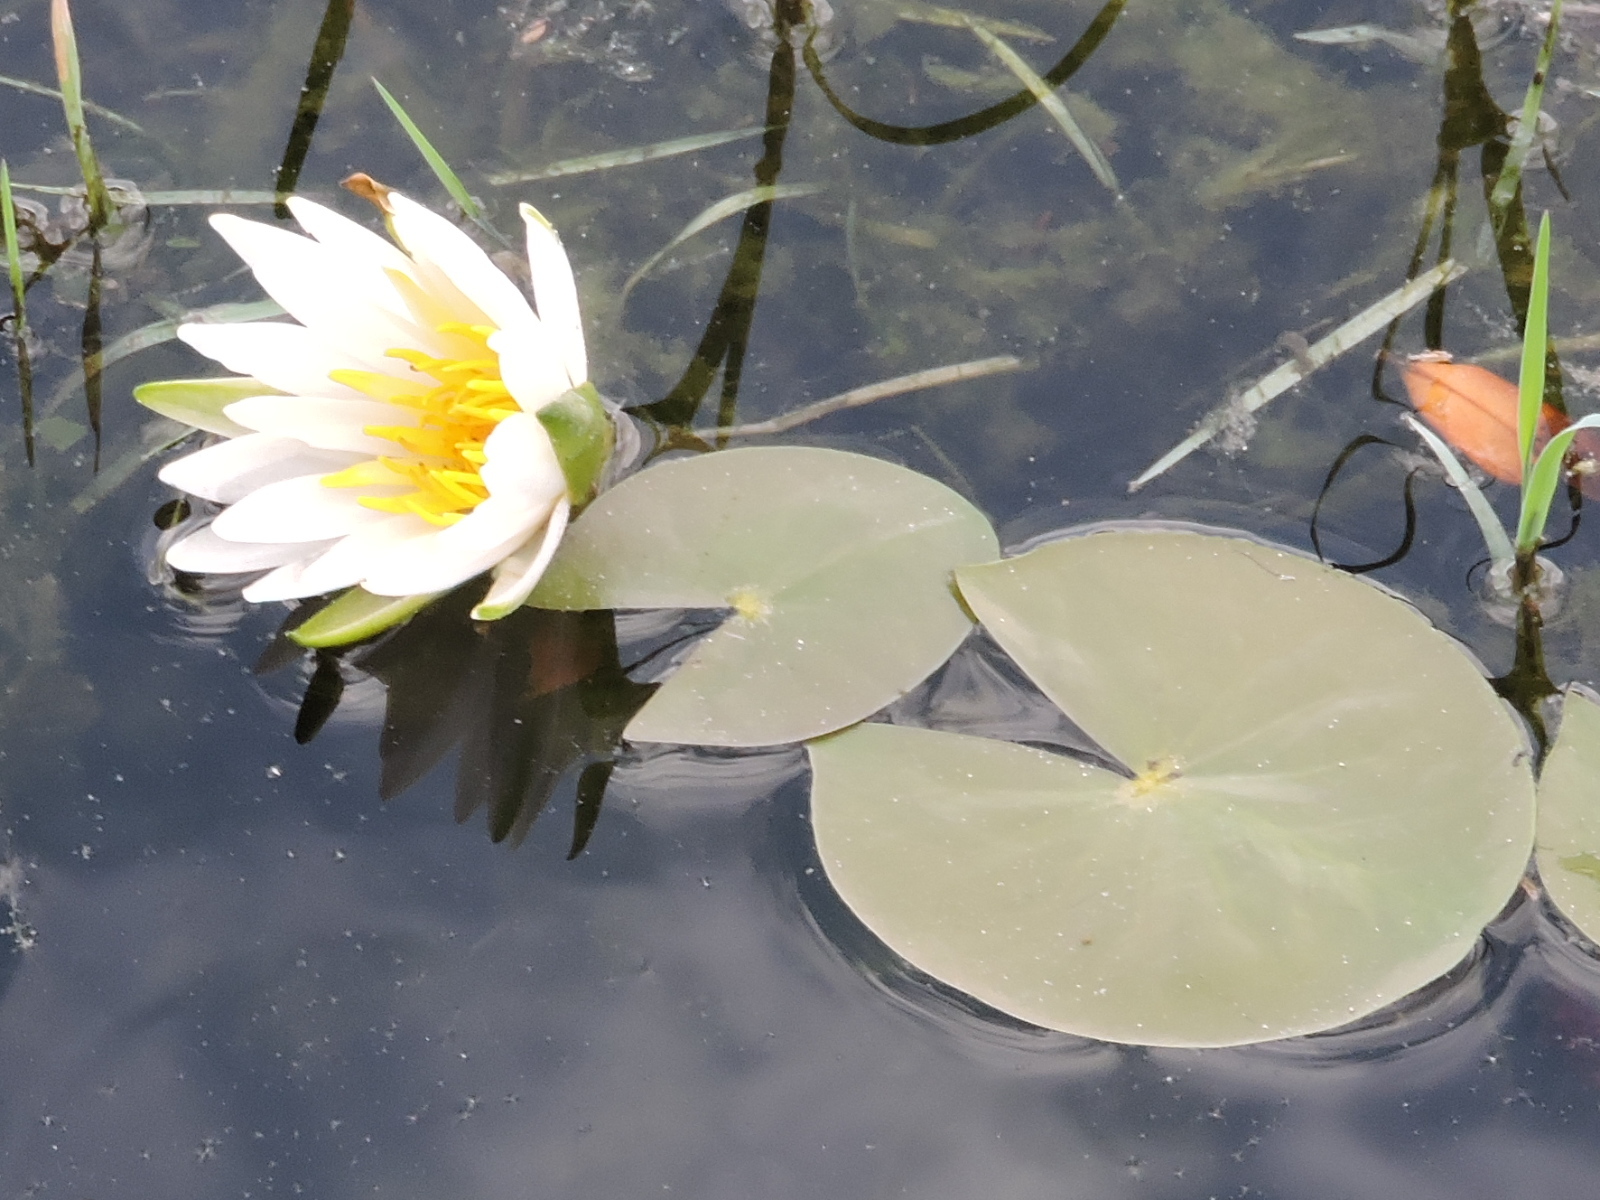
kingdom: Plantae
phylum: Tracheophyta
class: Magnoliopsida
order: Nymphaeales
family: Nymphaeaceae
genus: Nymphaea
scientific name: Nymphaea odorata
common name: Fragrant water-lily
